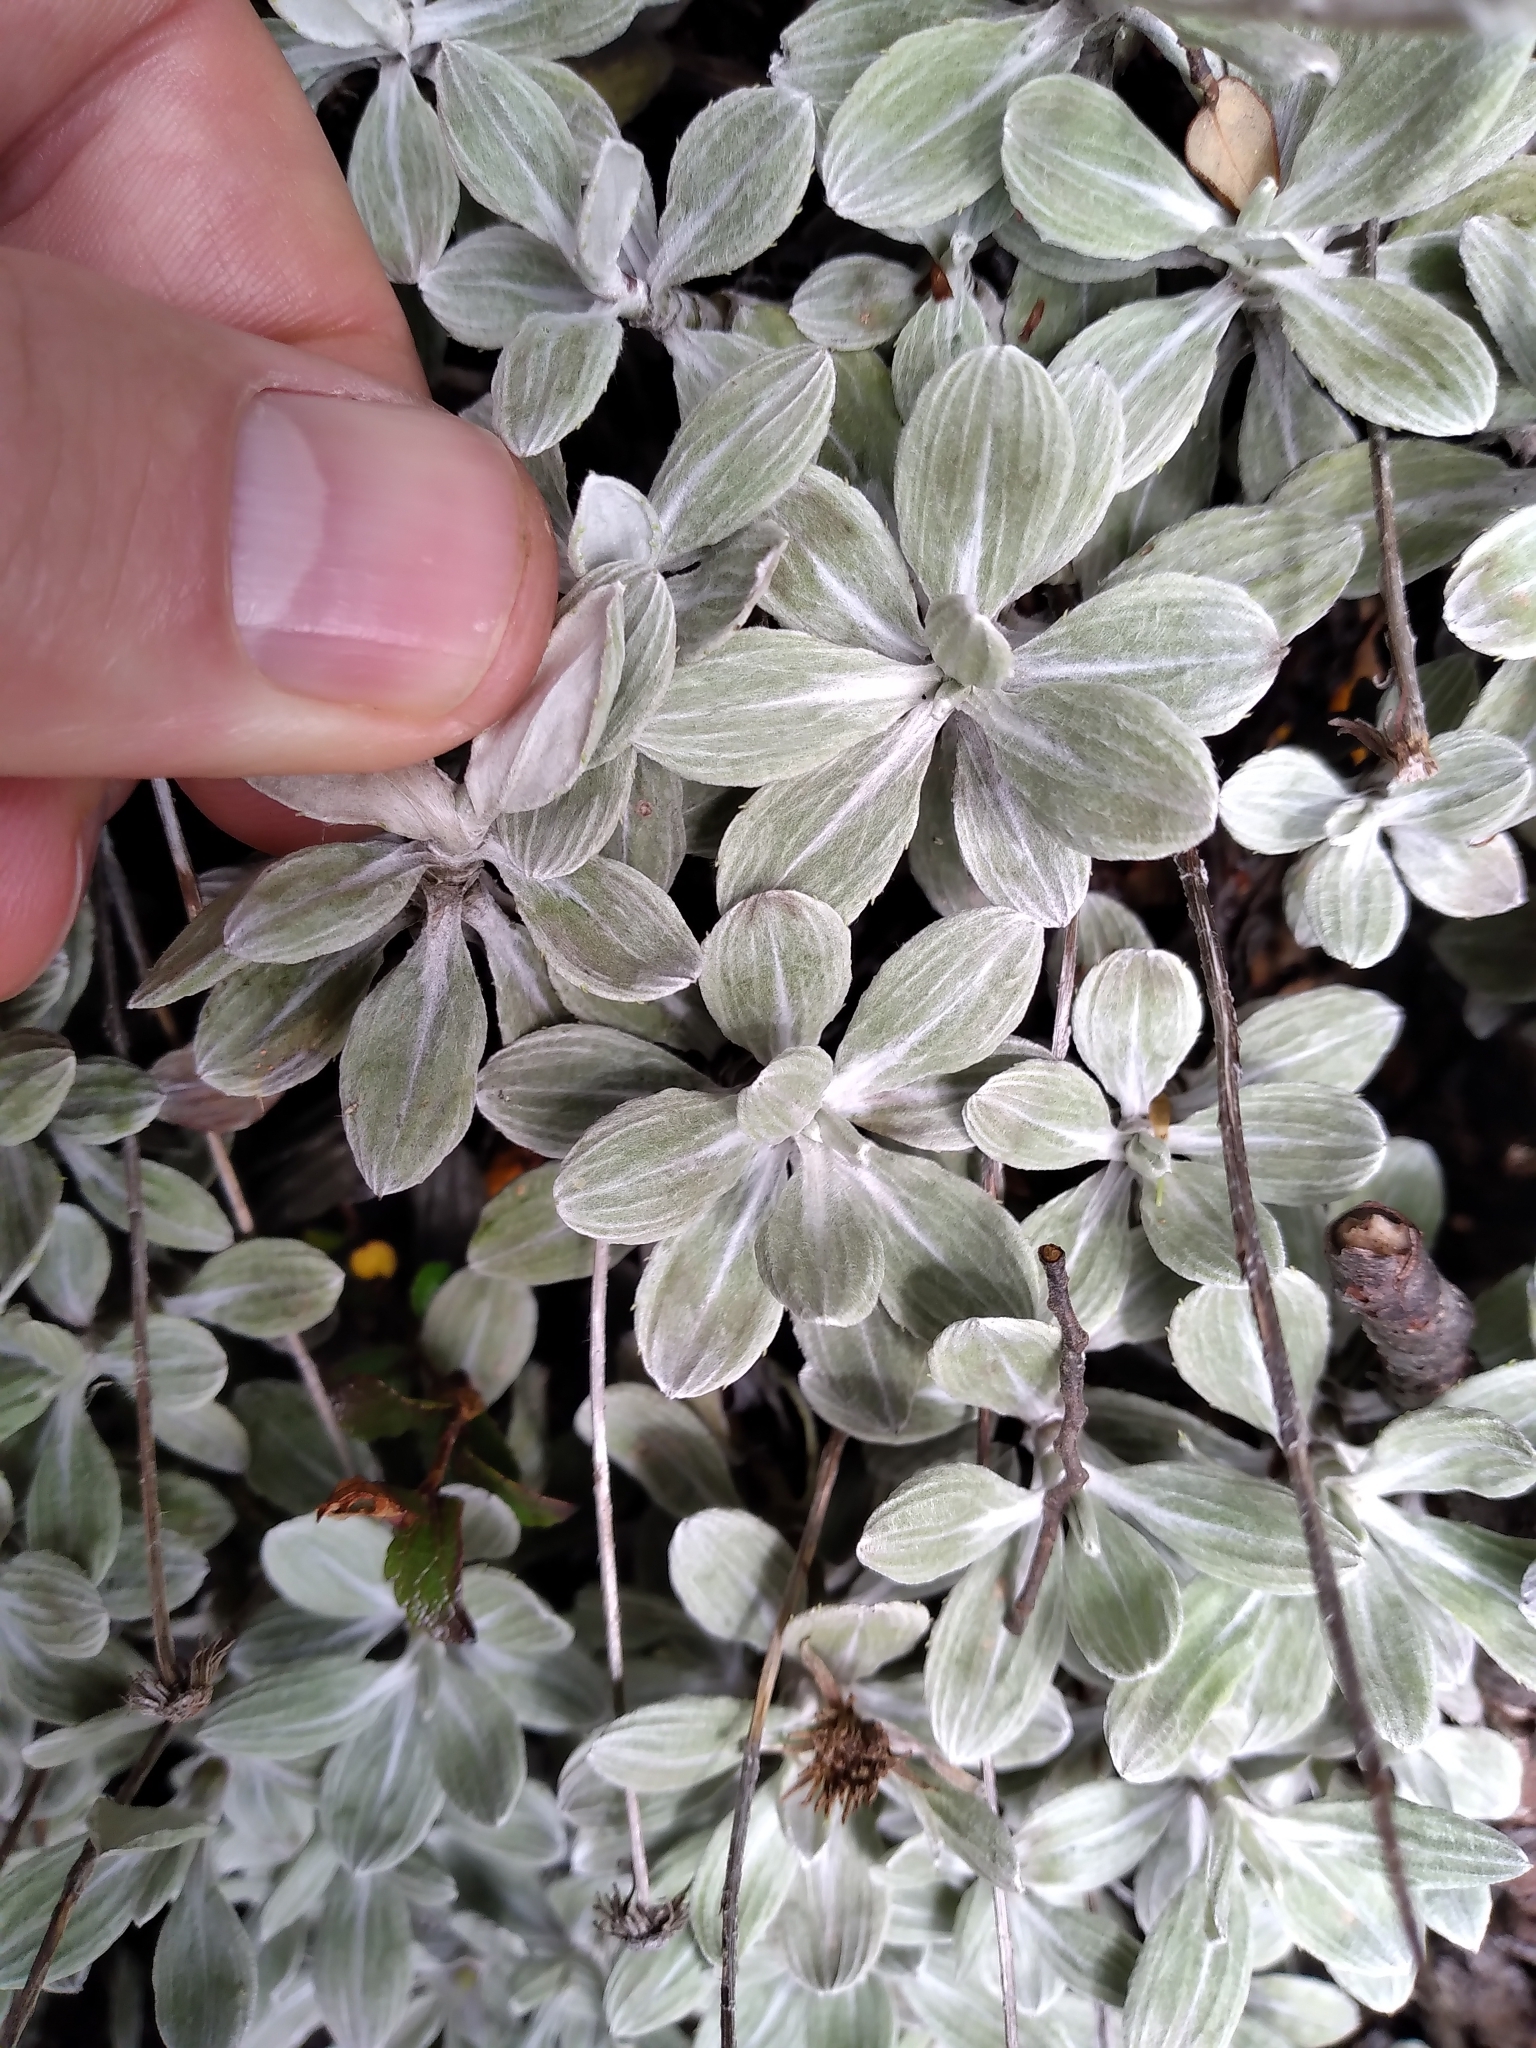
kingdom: Plantae
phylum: Tracheophyta
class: Magnoliopsida
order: Asterales
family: Asteraceae
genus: Celmisia
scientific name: Celmisia discolor
